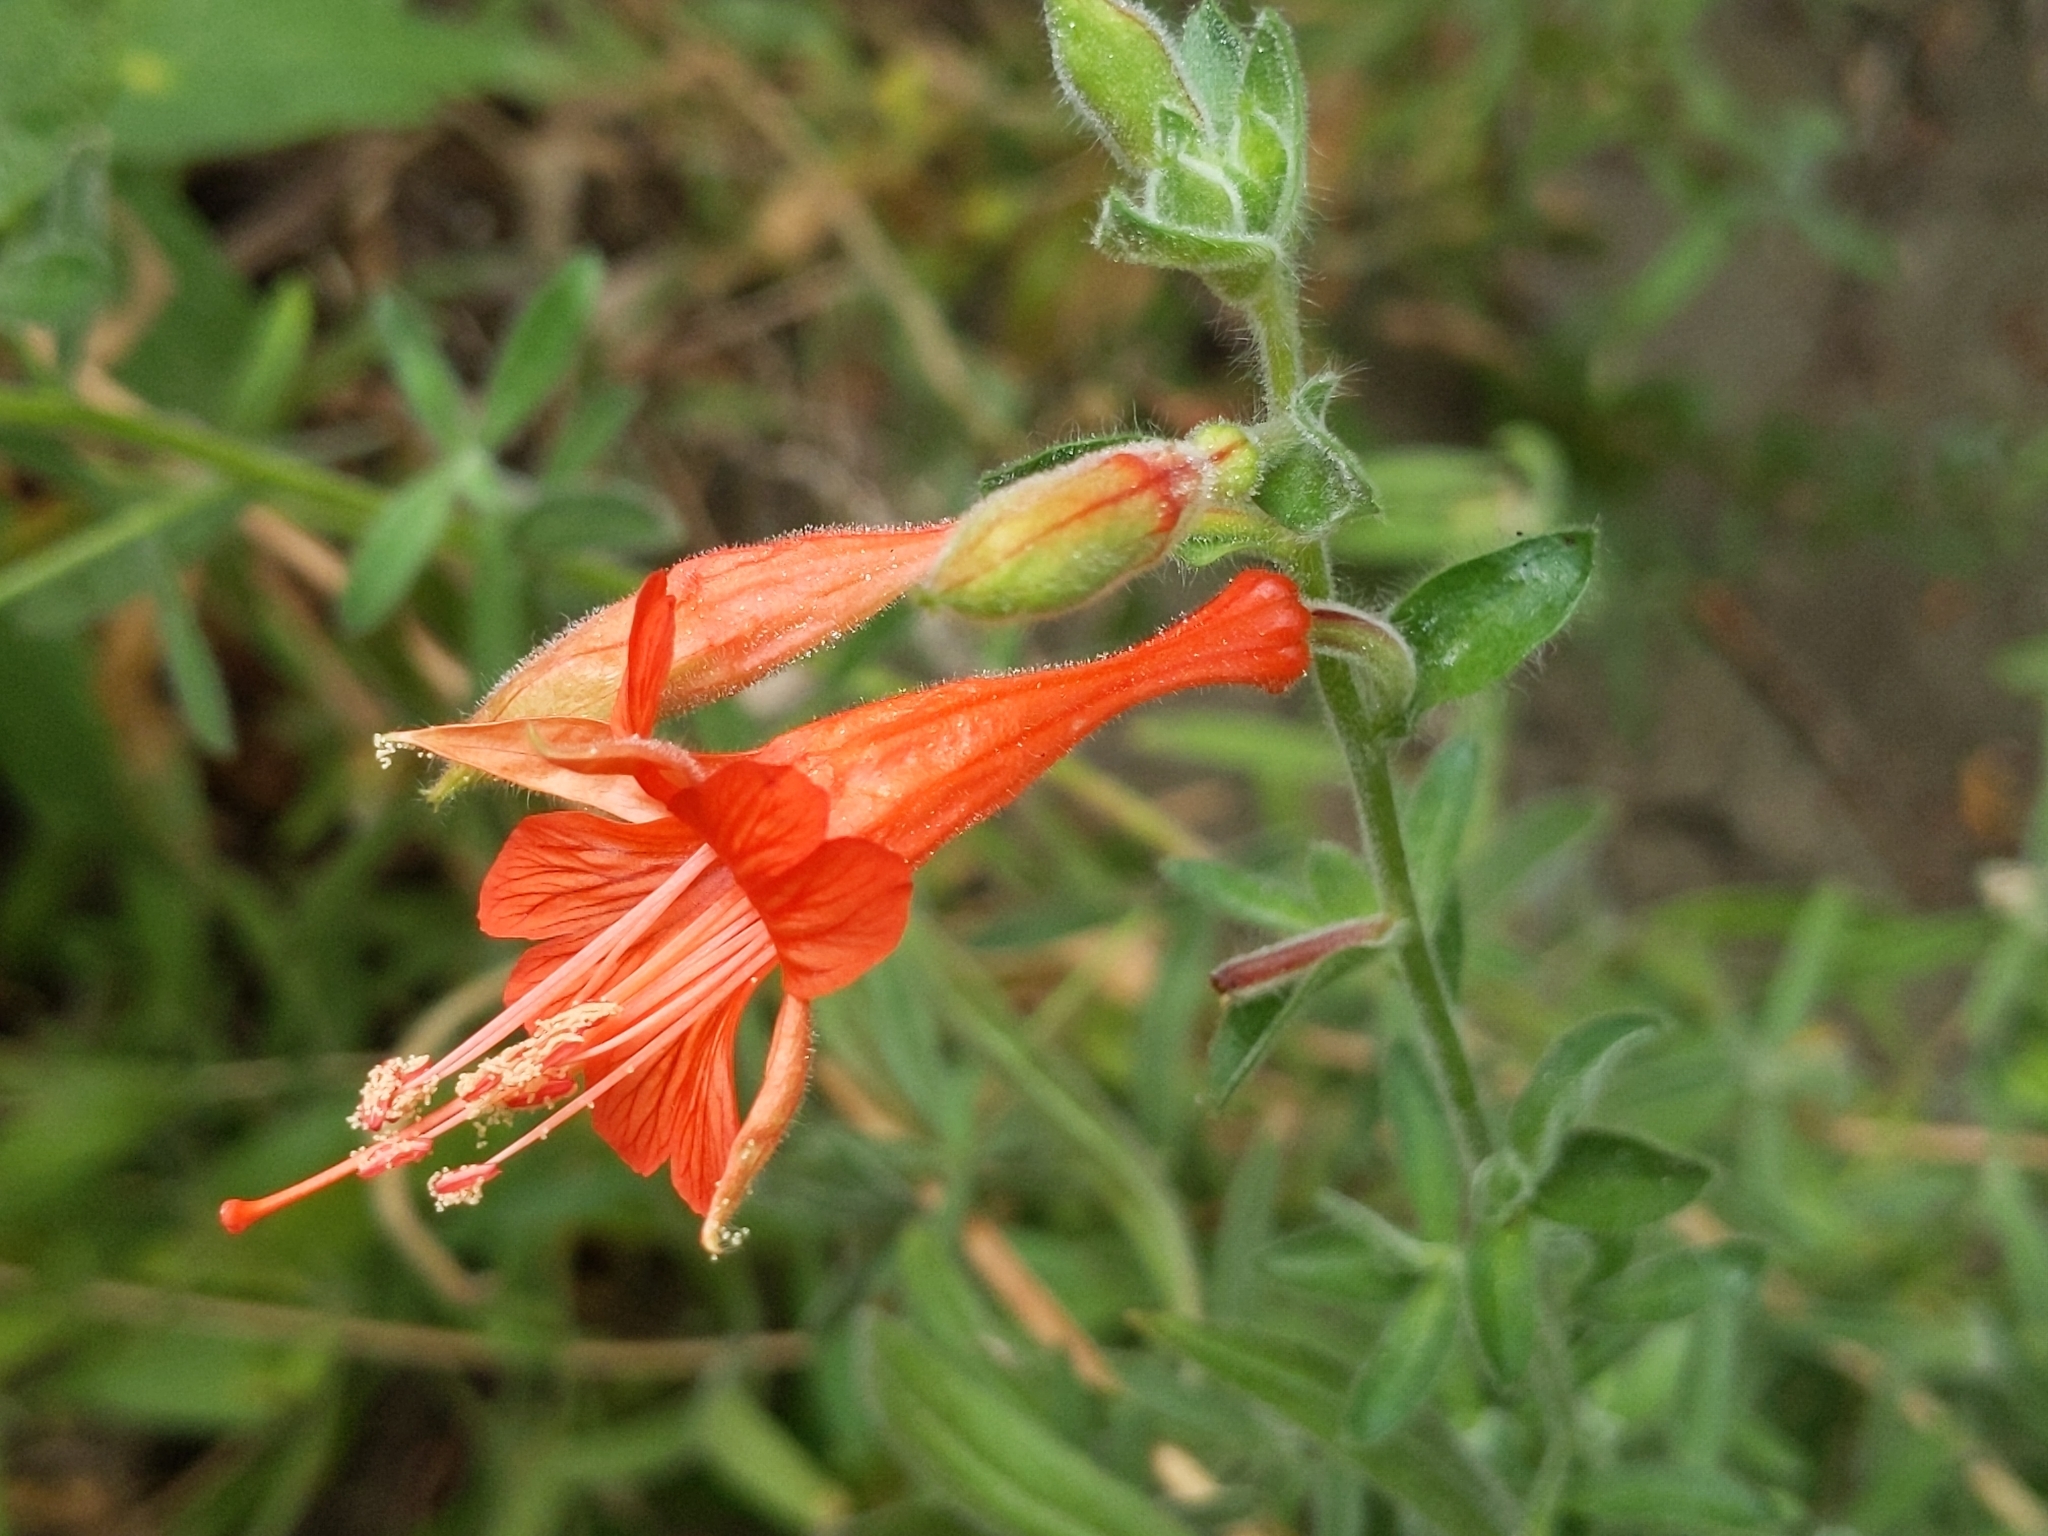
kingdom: Plantae
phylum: Tracheophyta
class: Magnoliopsida
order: Myrtales
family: Onagraceae
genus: Epilobium
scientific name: Epilobium canum
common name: California-fuchsia
